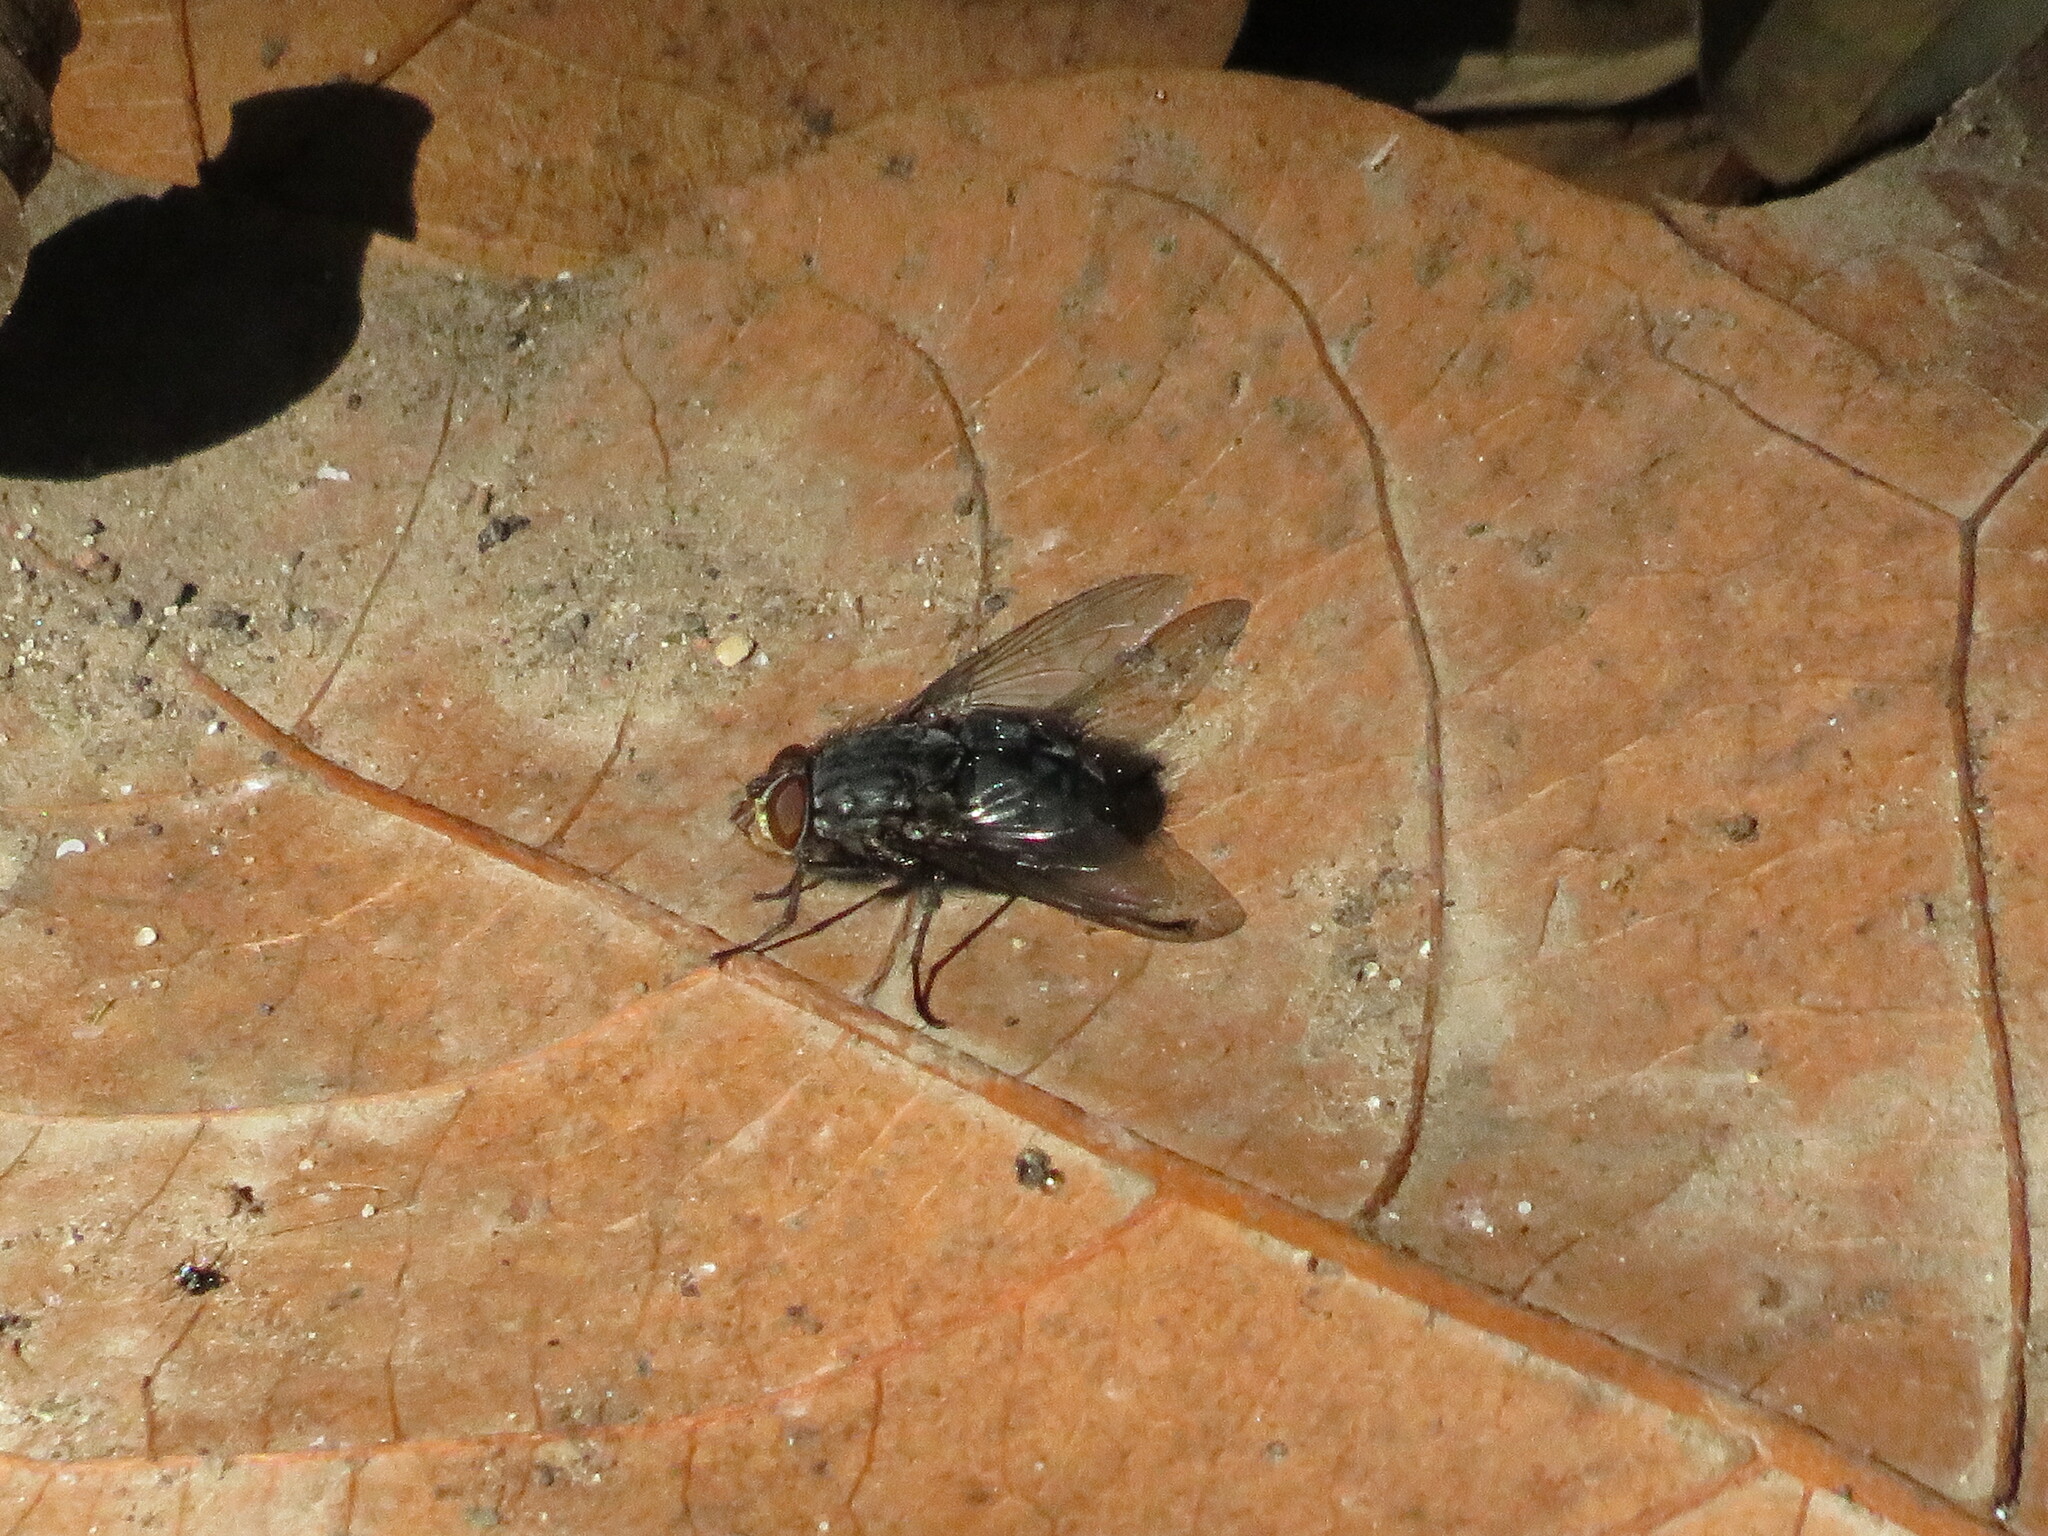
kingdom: Animalia
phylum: Arthropoda
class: Insecta
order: Diptera
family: Calliphoridae
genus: Calliphora
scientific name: Calliphora vicina
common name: Common blow flie
